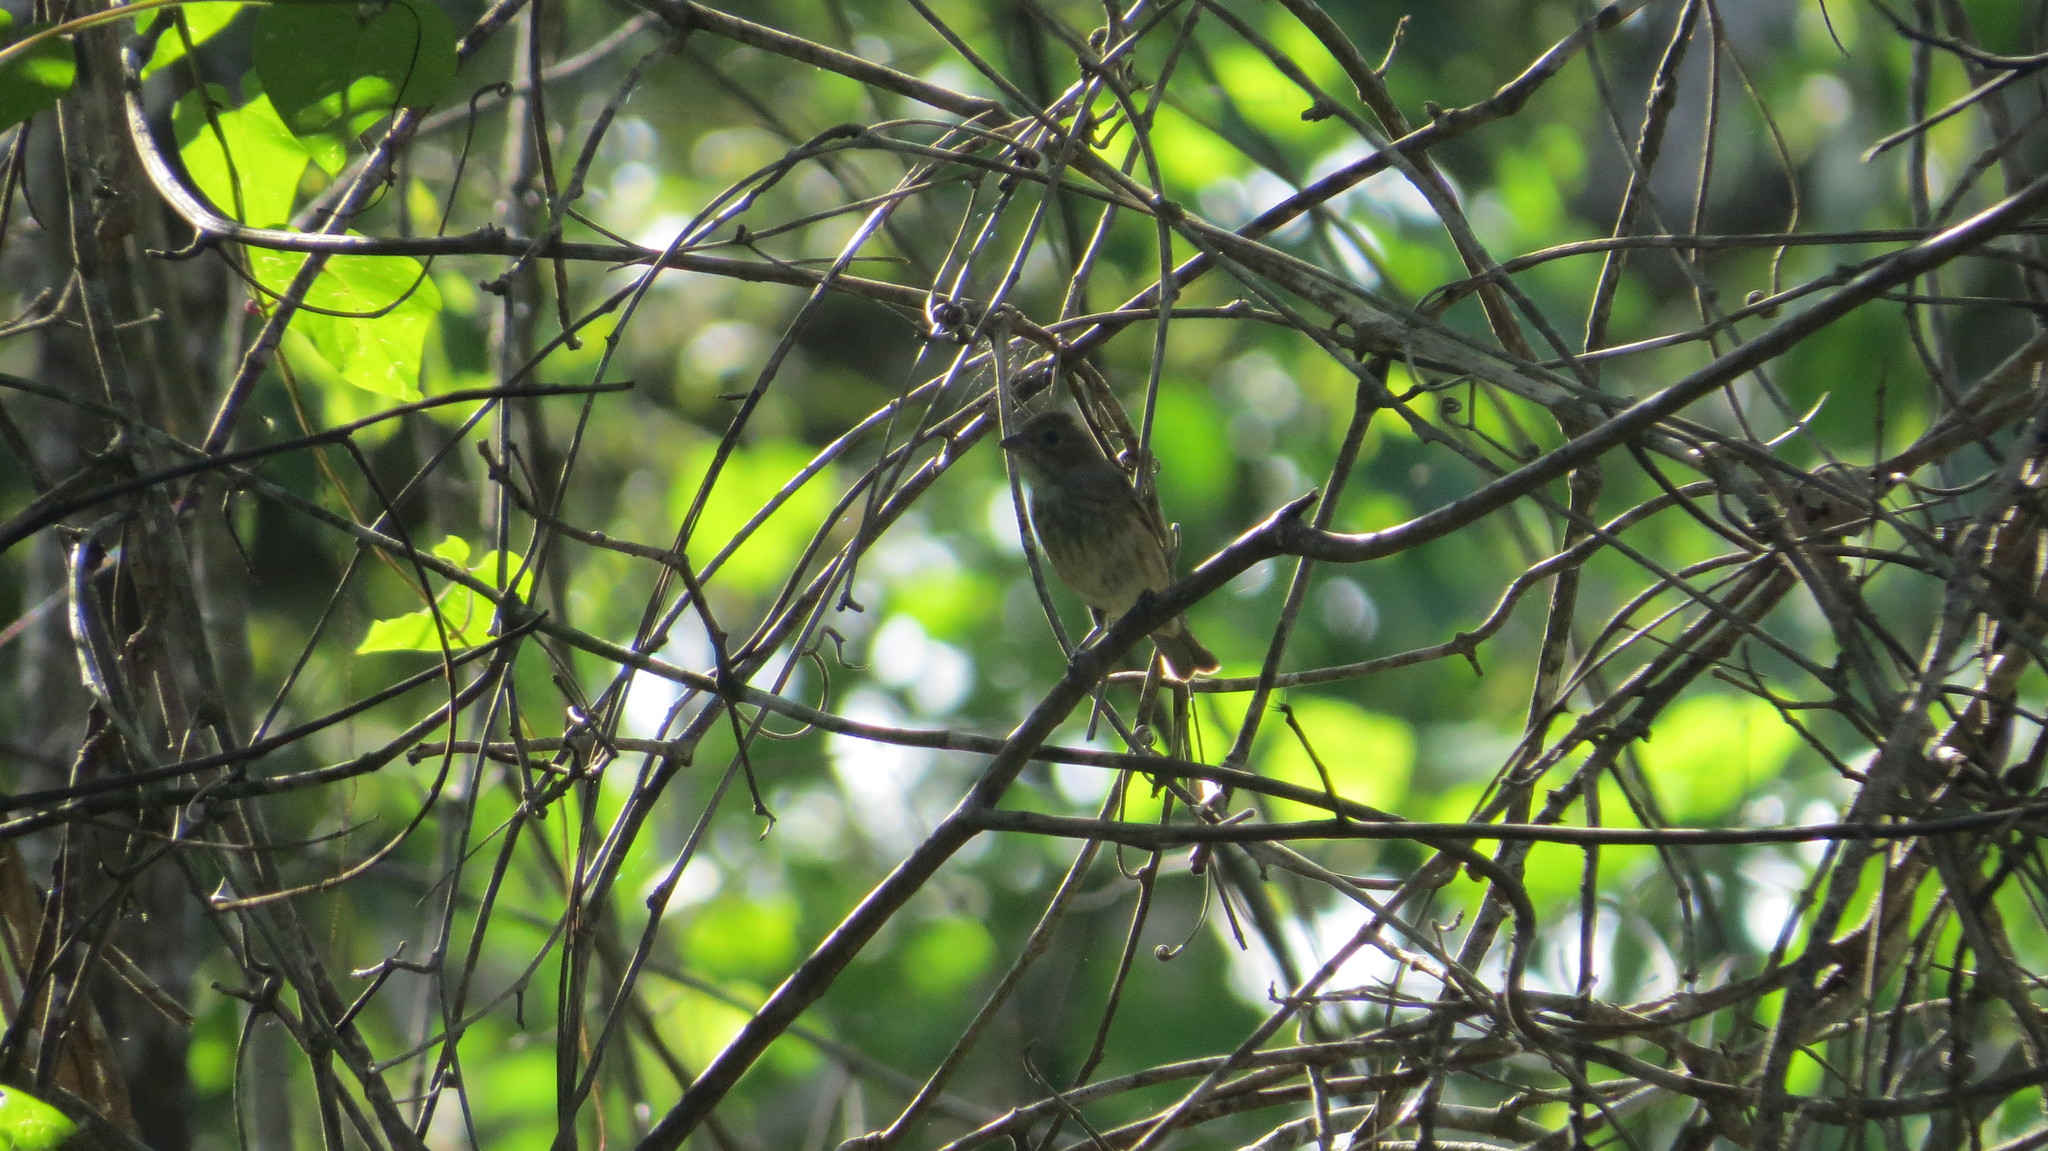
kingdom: Animalia
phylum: Chordata
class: Aves
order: Passeriformes
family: Cardinalidae
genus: Passerina
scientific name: Passerina cyanea
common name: Indigo bunting
